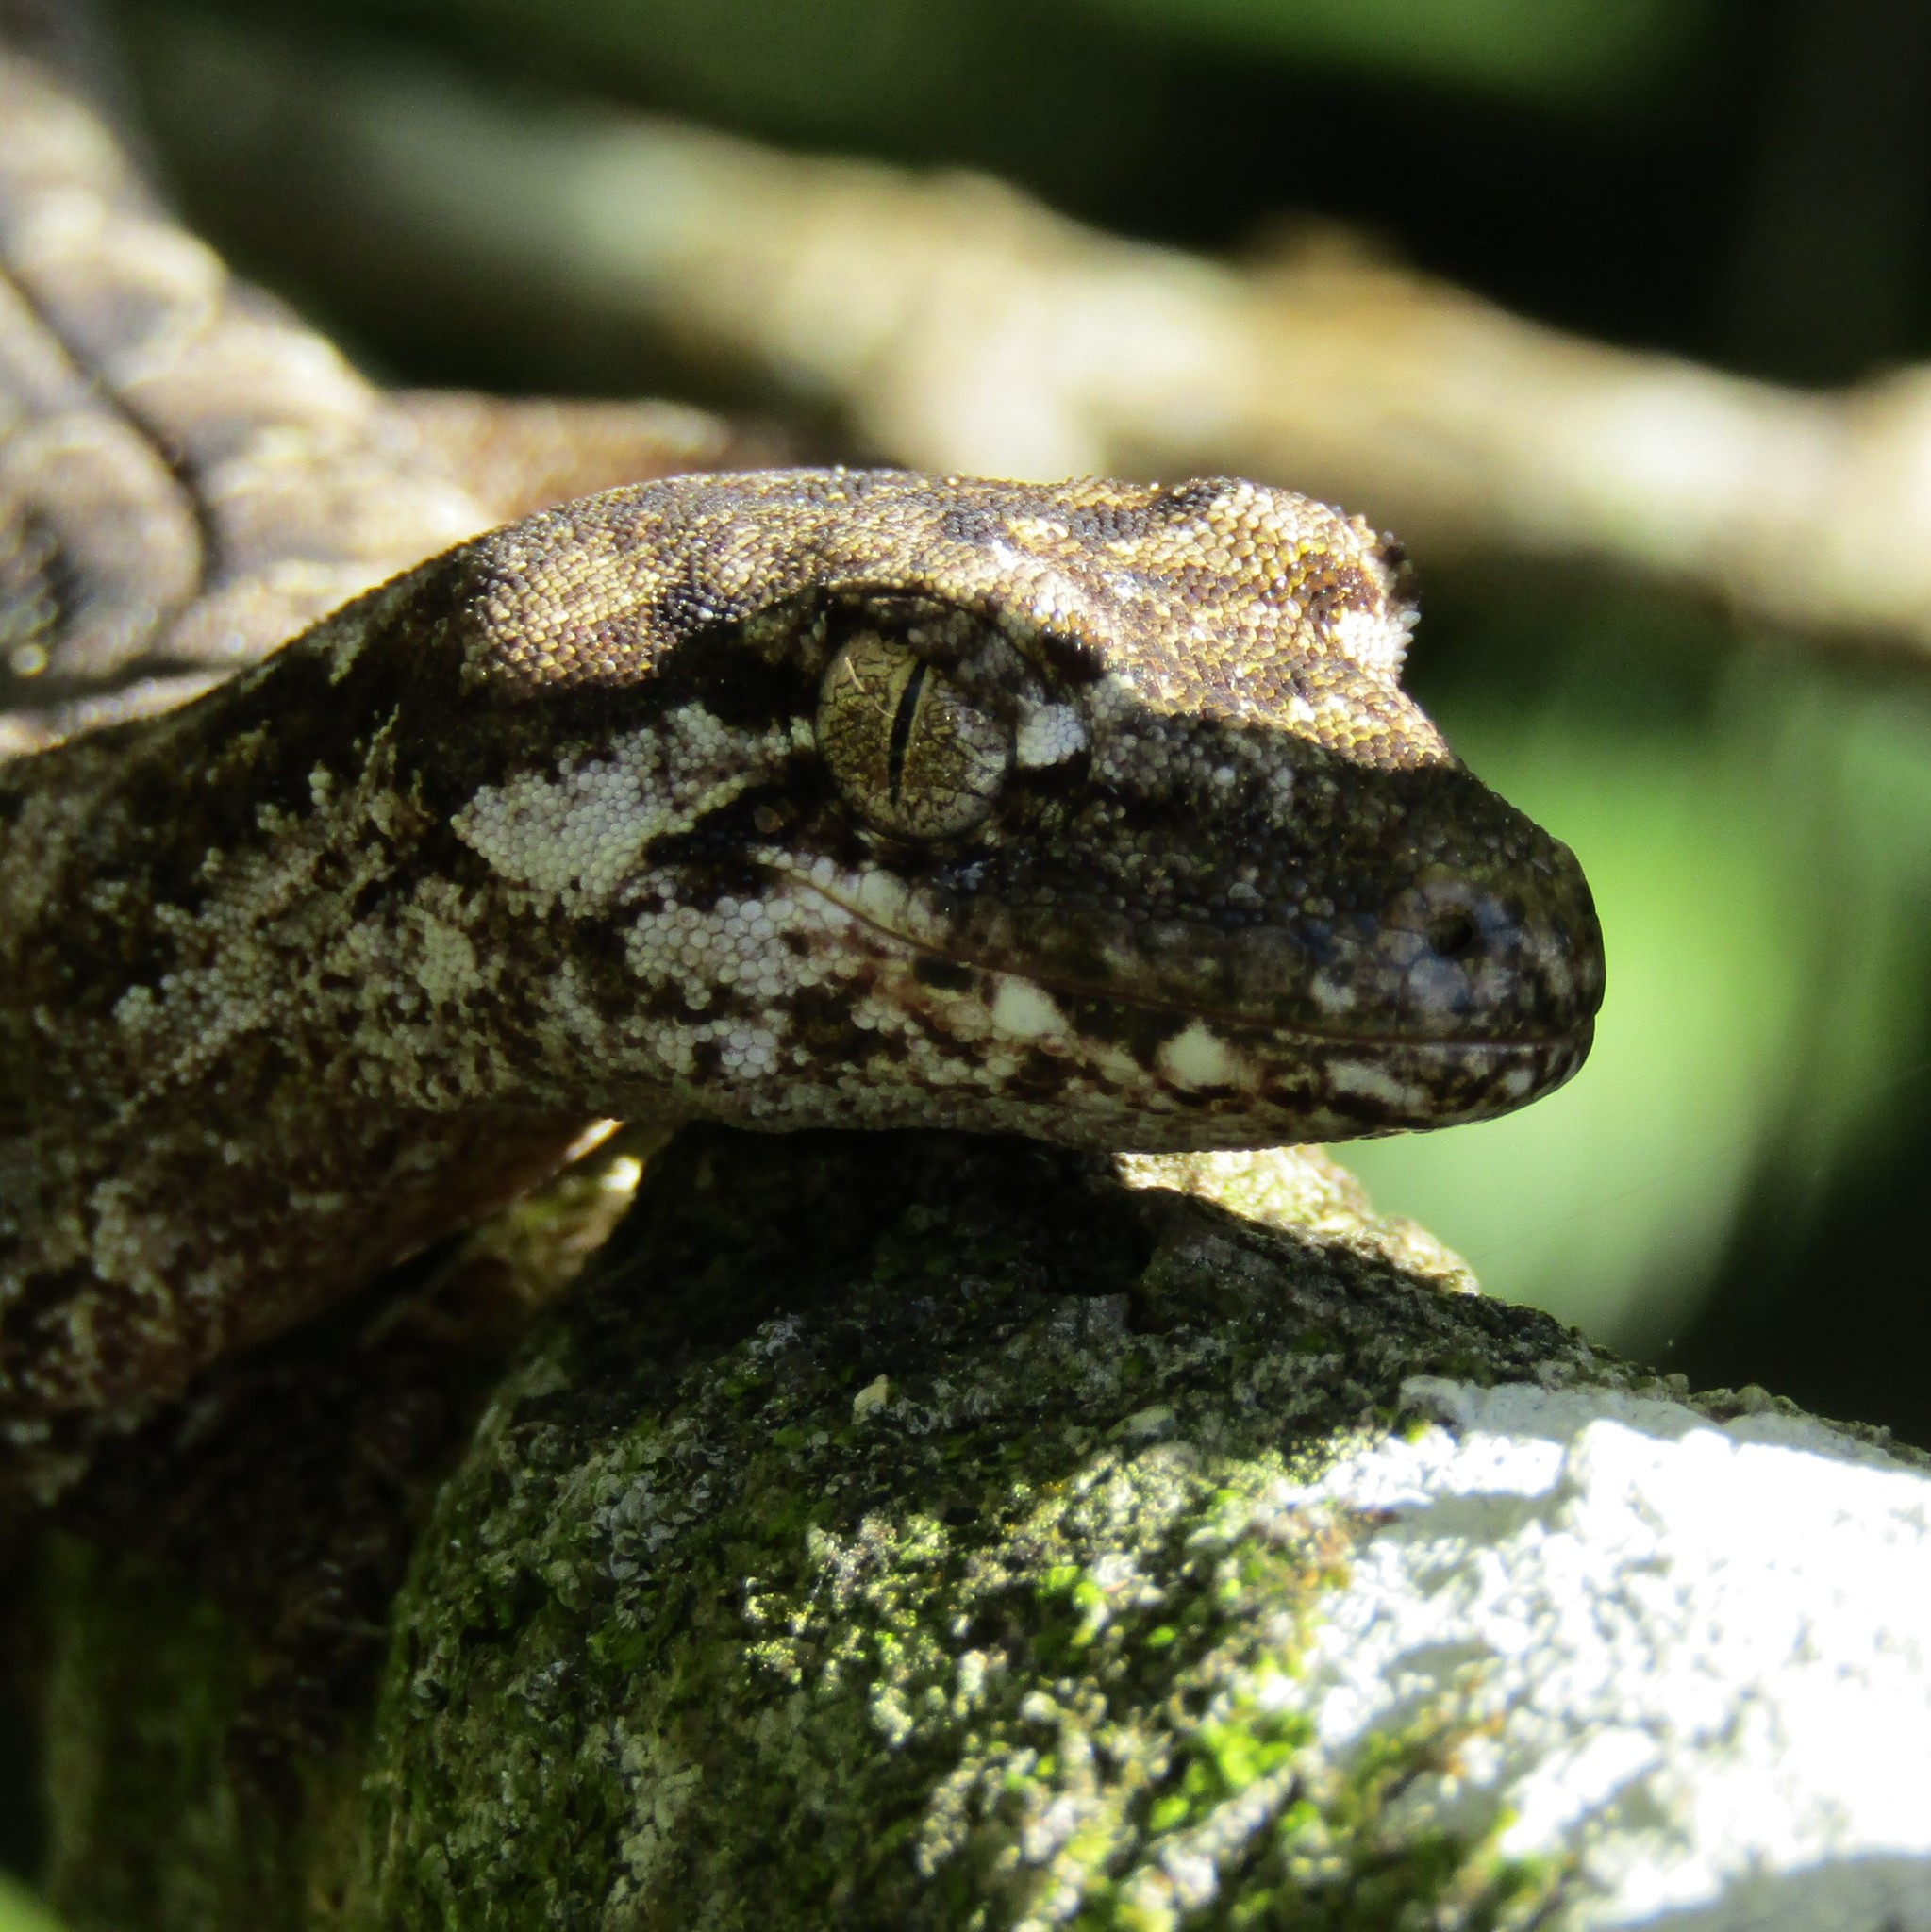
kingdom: Animalia
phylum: Chordata
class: Squamata
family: Diplodactylidae
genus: Mokopirirakau
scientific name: Mokopirirakau
